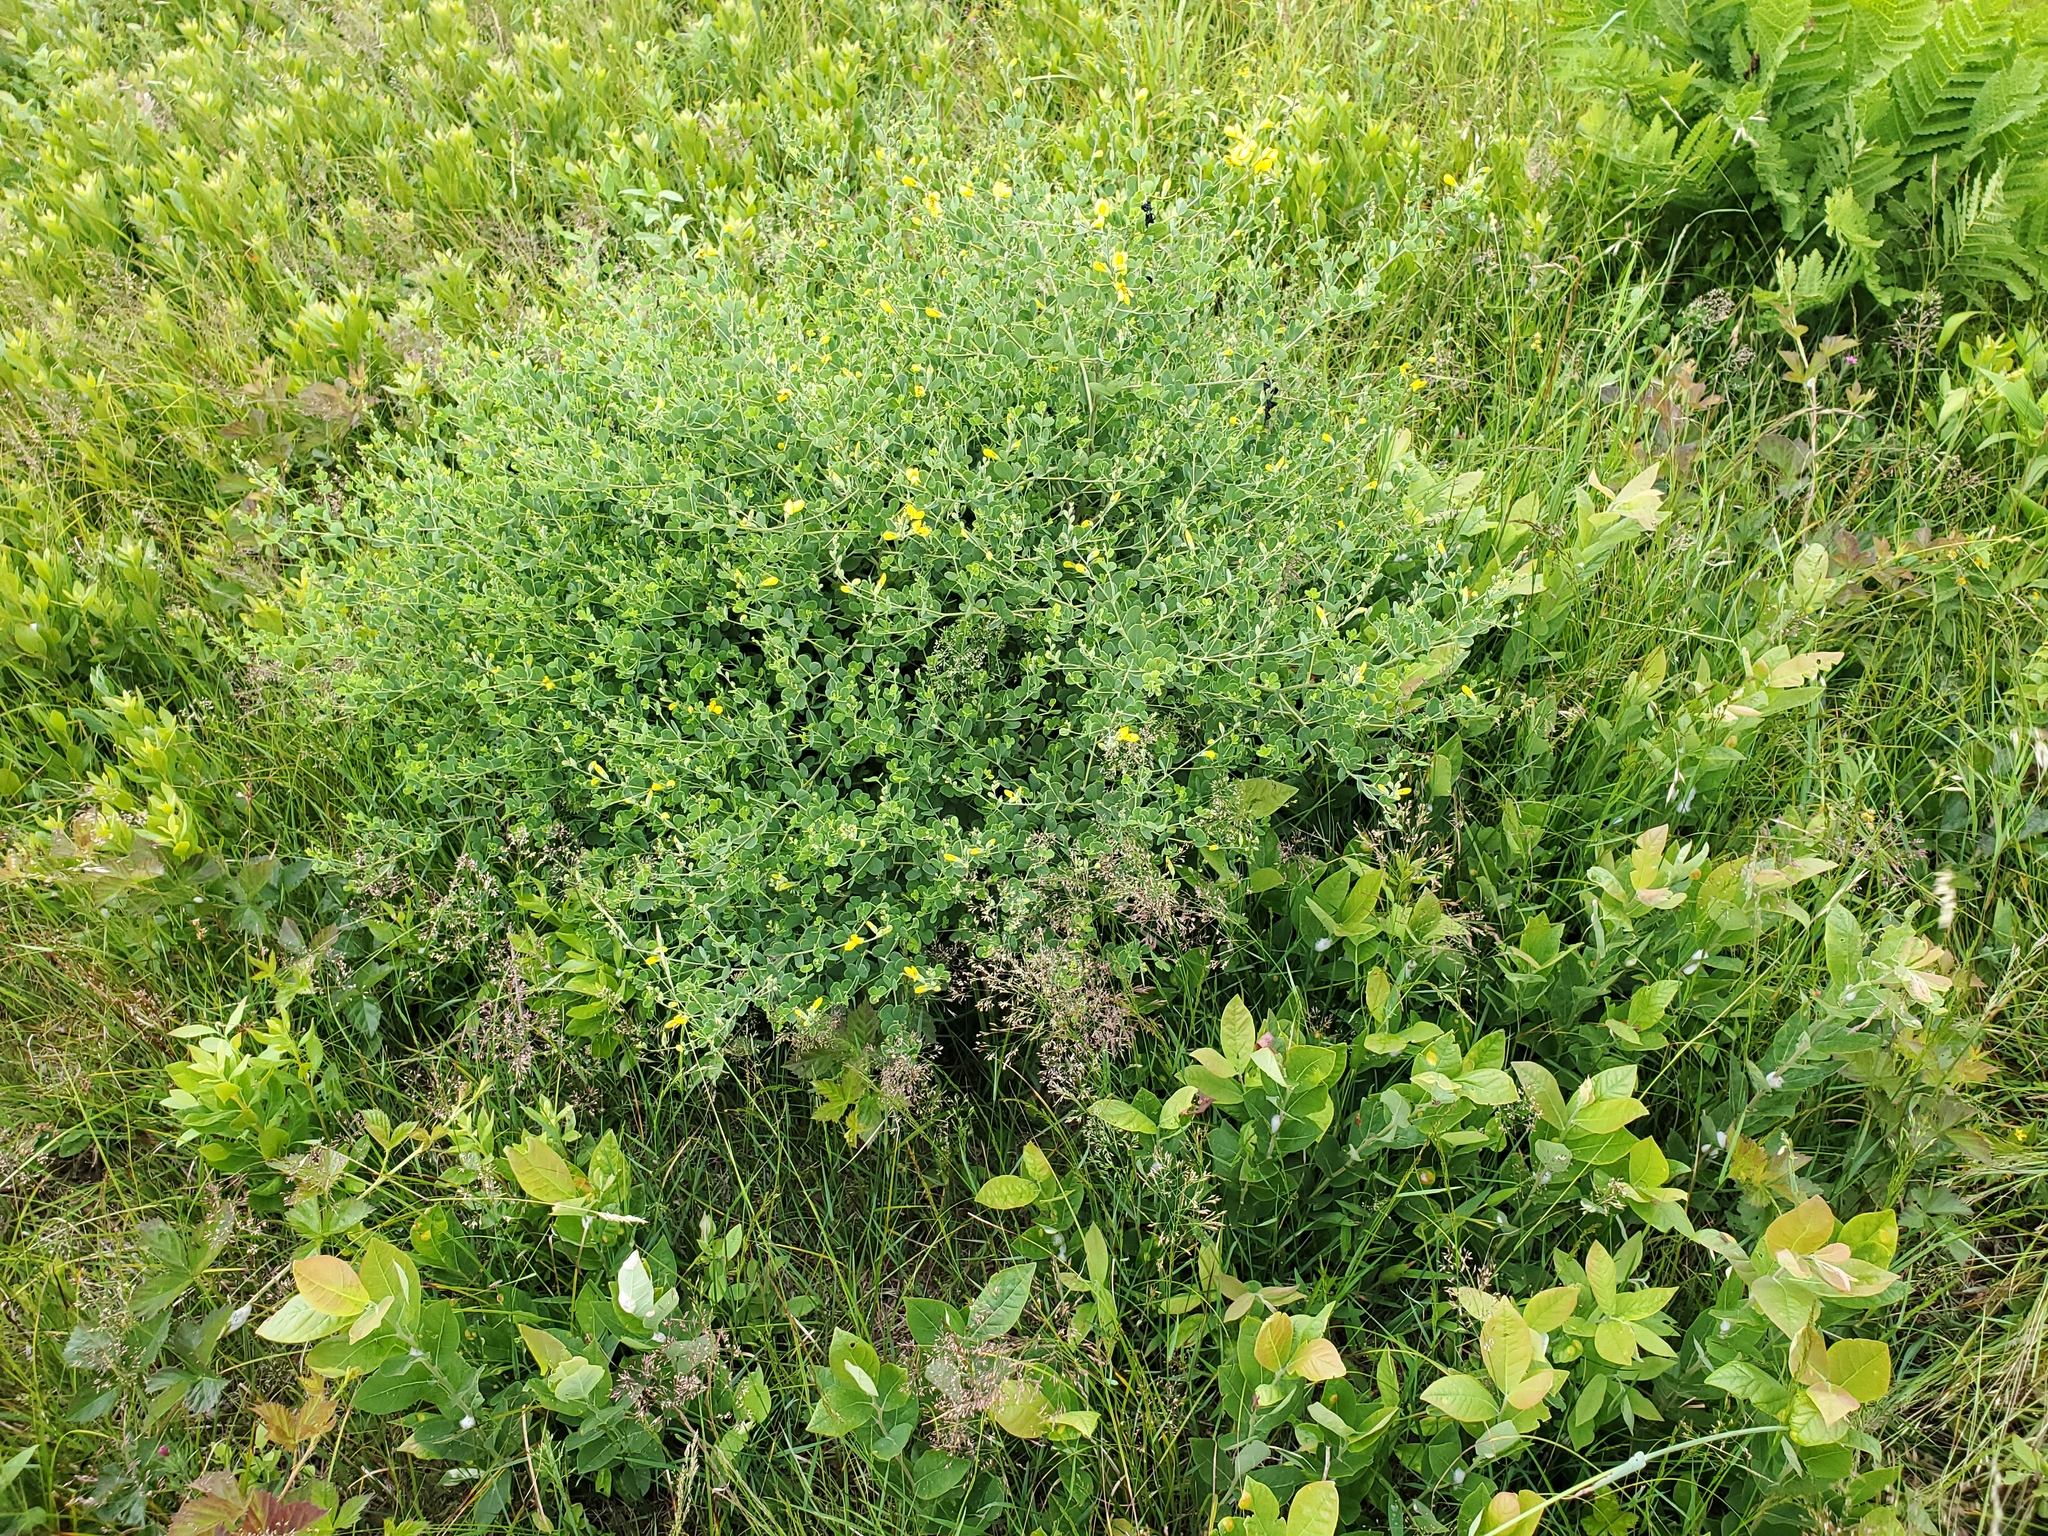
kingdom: Plantae
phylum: Tracheophyta
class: Magnoliopsida
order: Fabales
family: Fabaceae
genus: Baptisia
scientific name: Baptisia tinctoria
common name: Wild indigo
